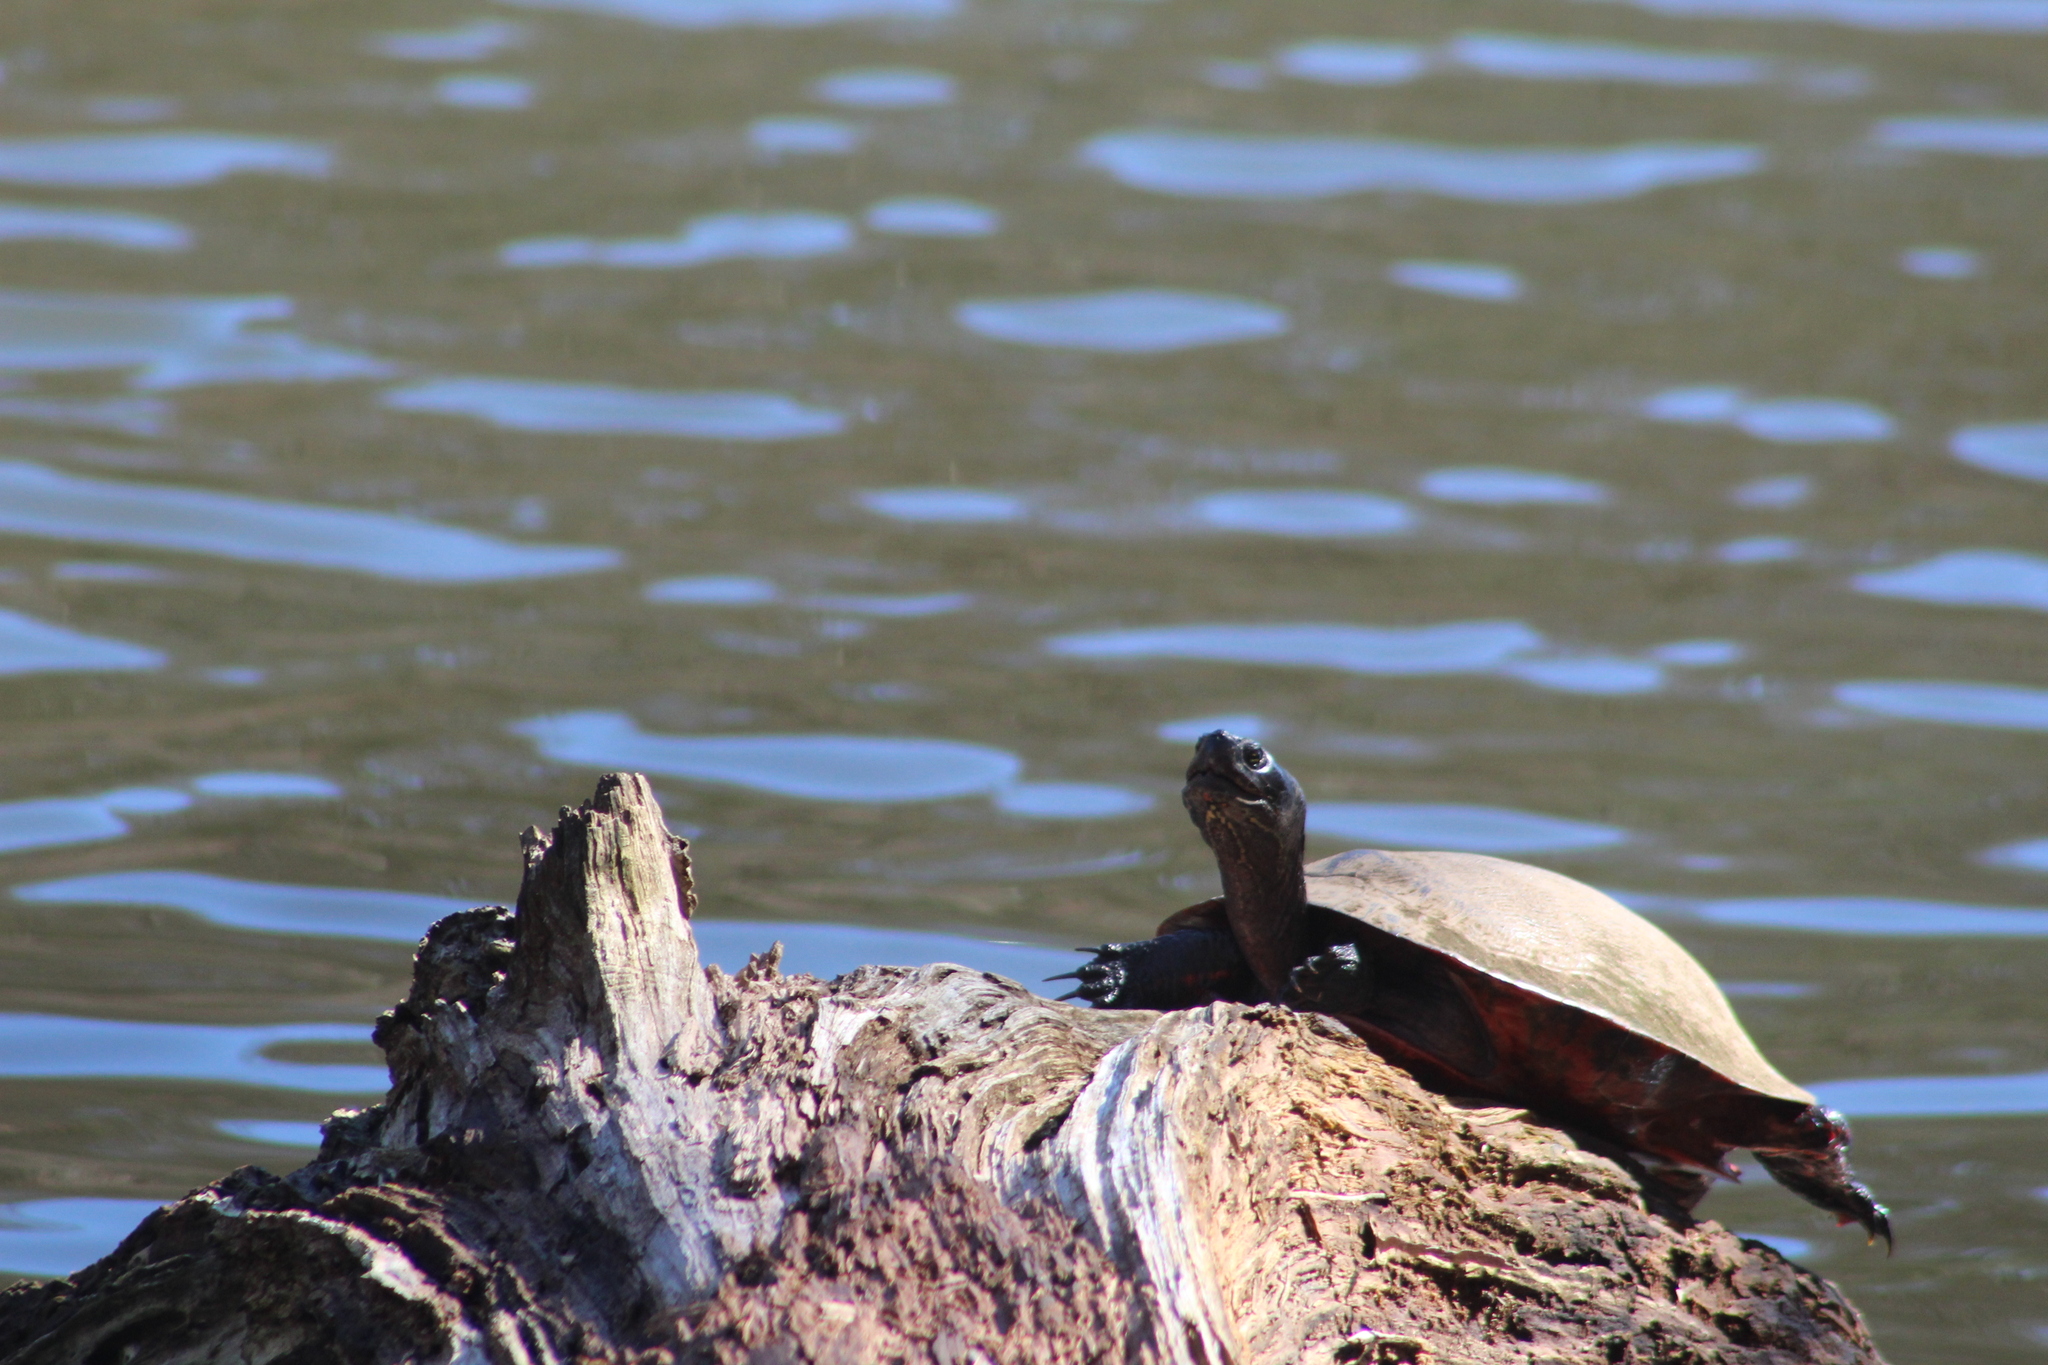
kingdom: Animalia
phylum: Chordata
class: Testudines
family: Emydidae
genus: Pseudemys
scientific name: Pseudemys rubriventris
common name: American red-bellied turtle
